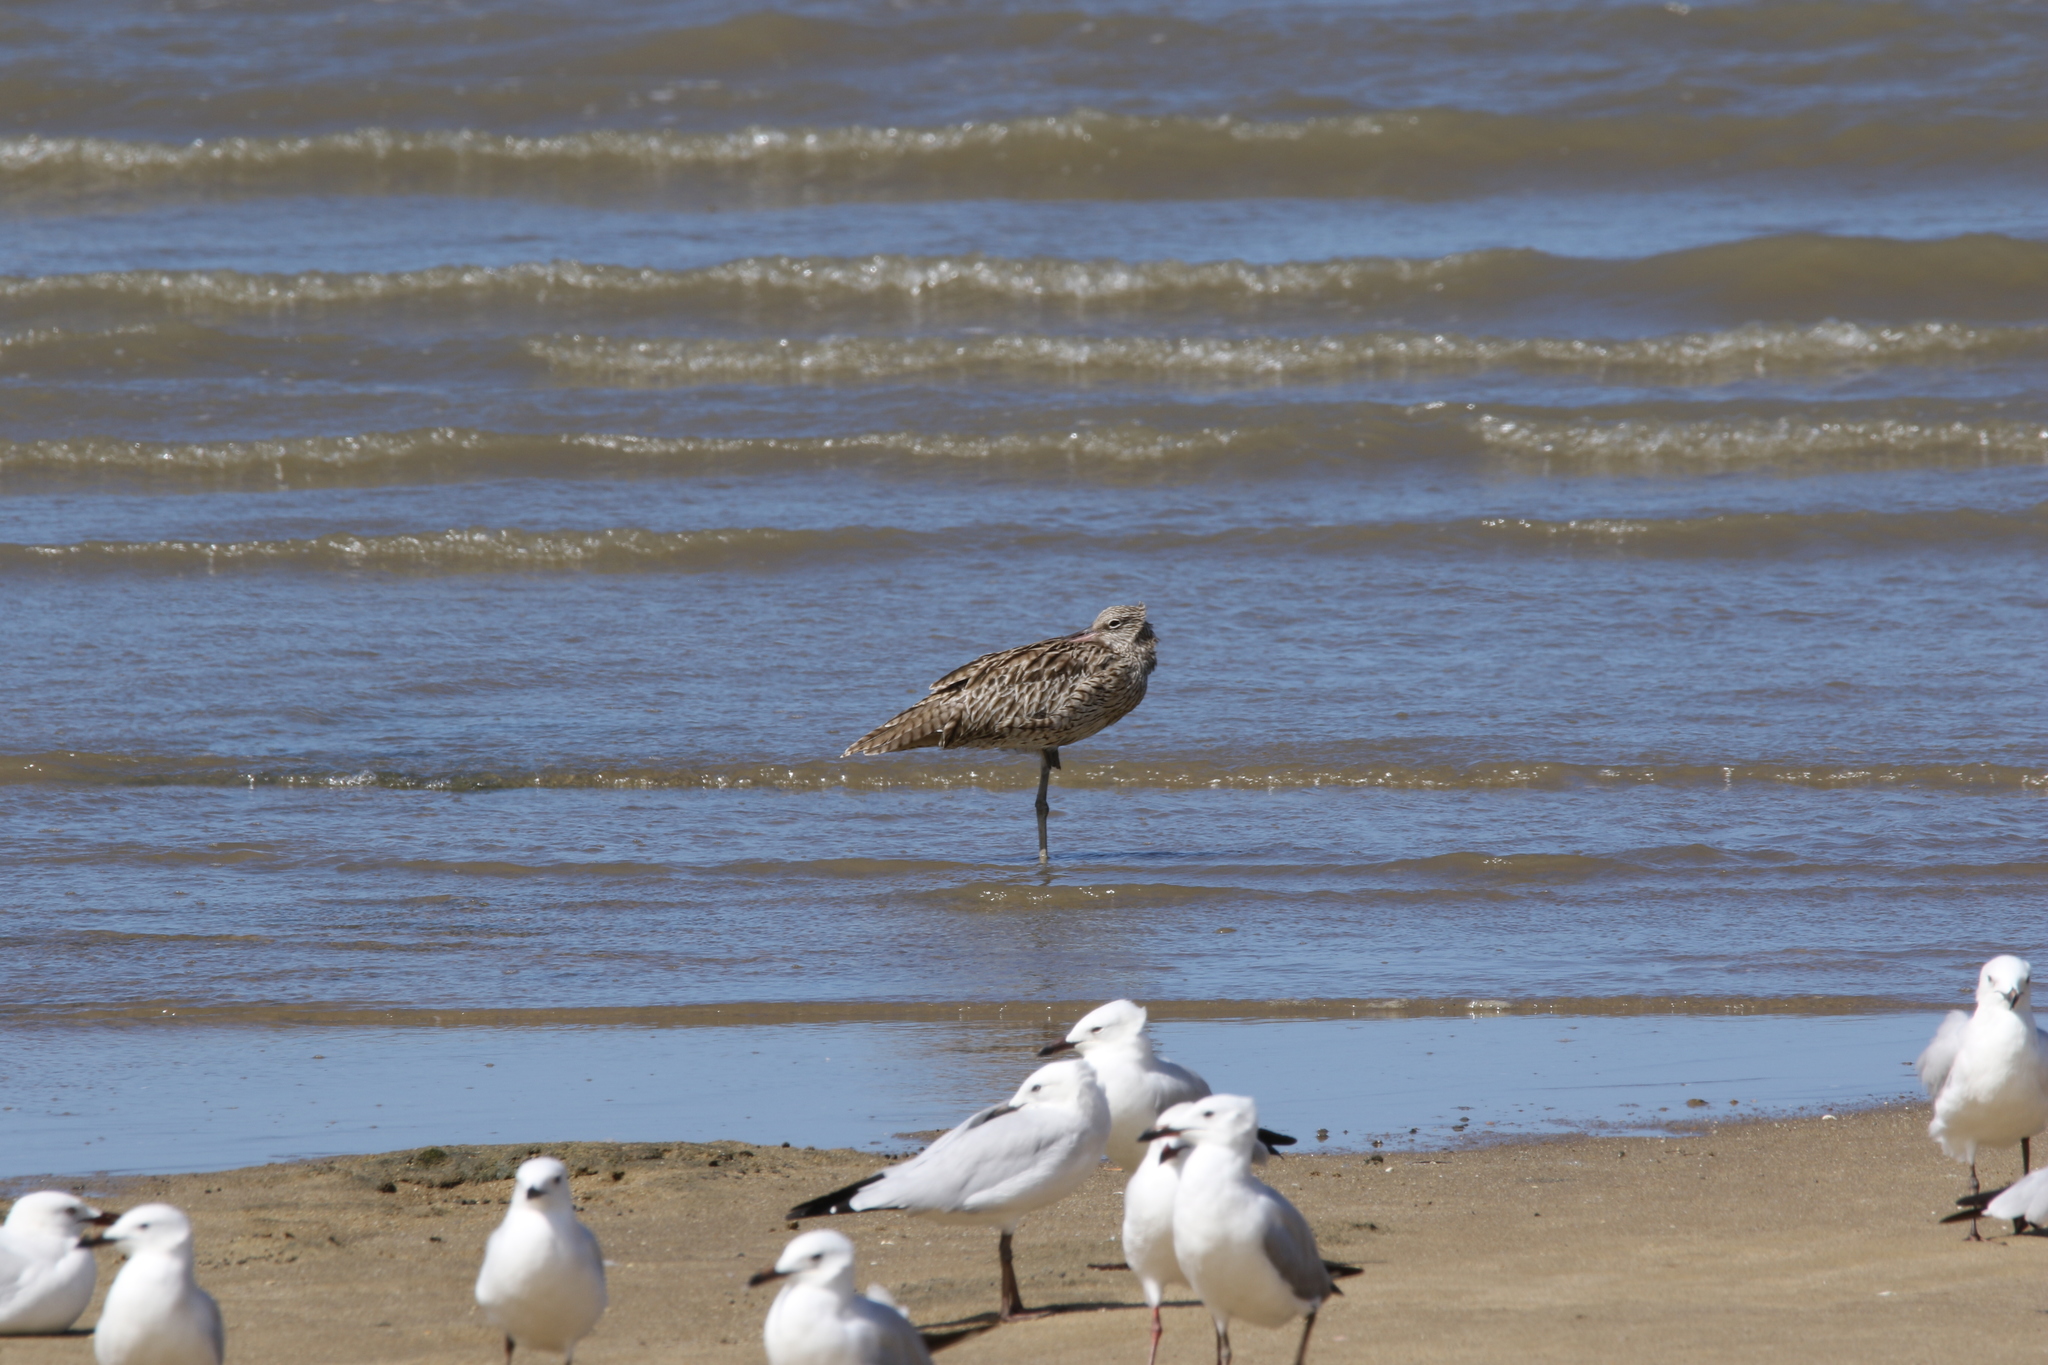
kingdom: Animalia
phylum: Chordata
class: Aves
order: Charadriiformes
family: Scolopacidae
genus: Numenius
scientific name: Numenius madagascariensis
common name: Far eastern curlew
